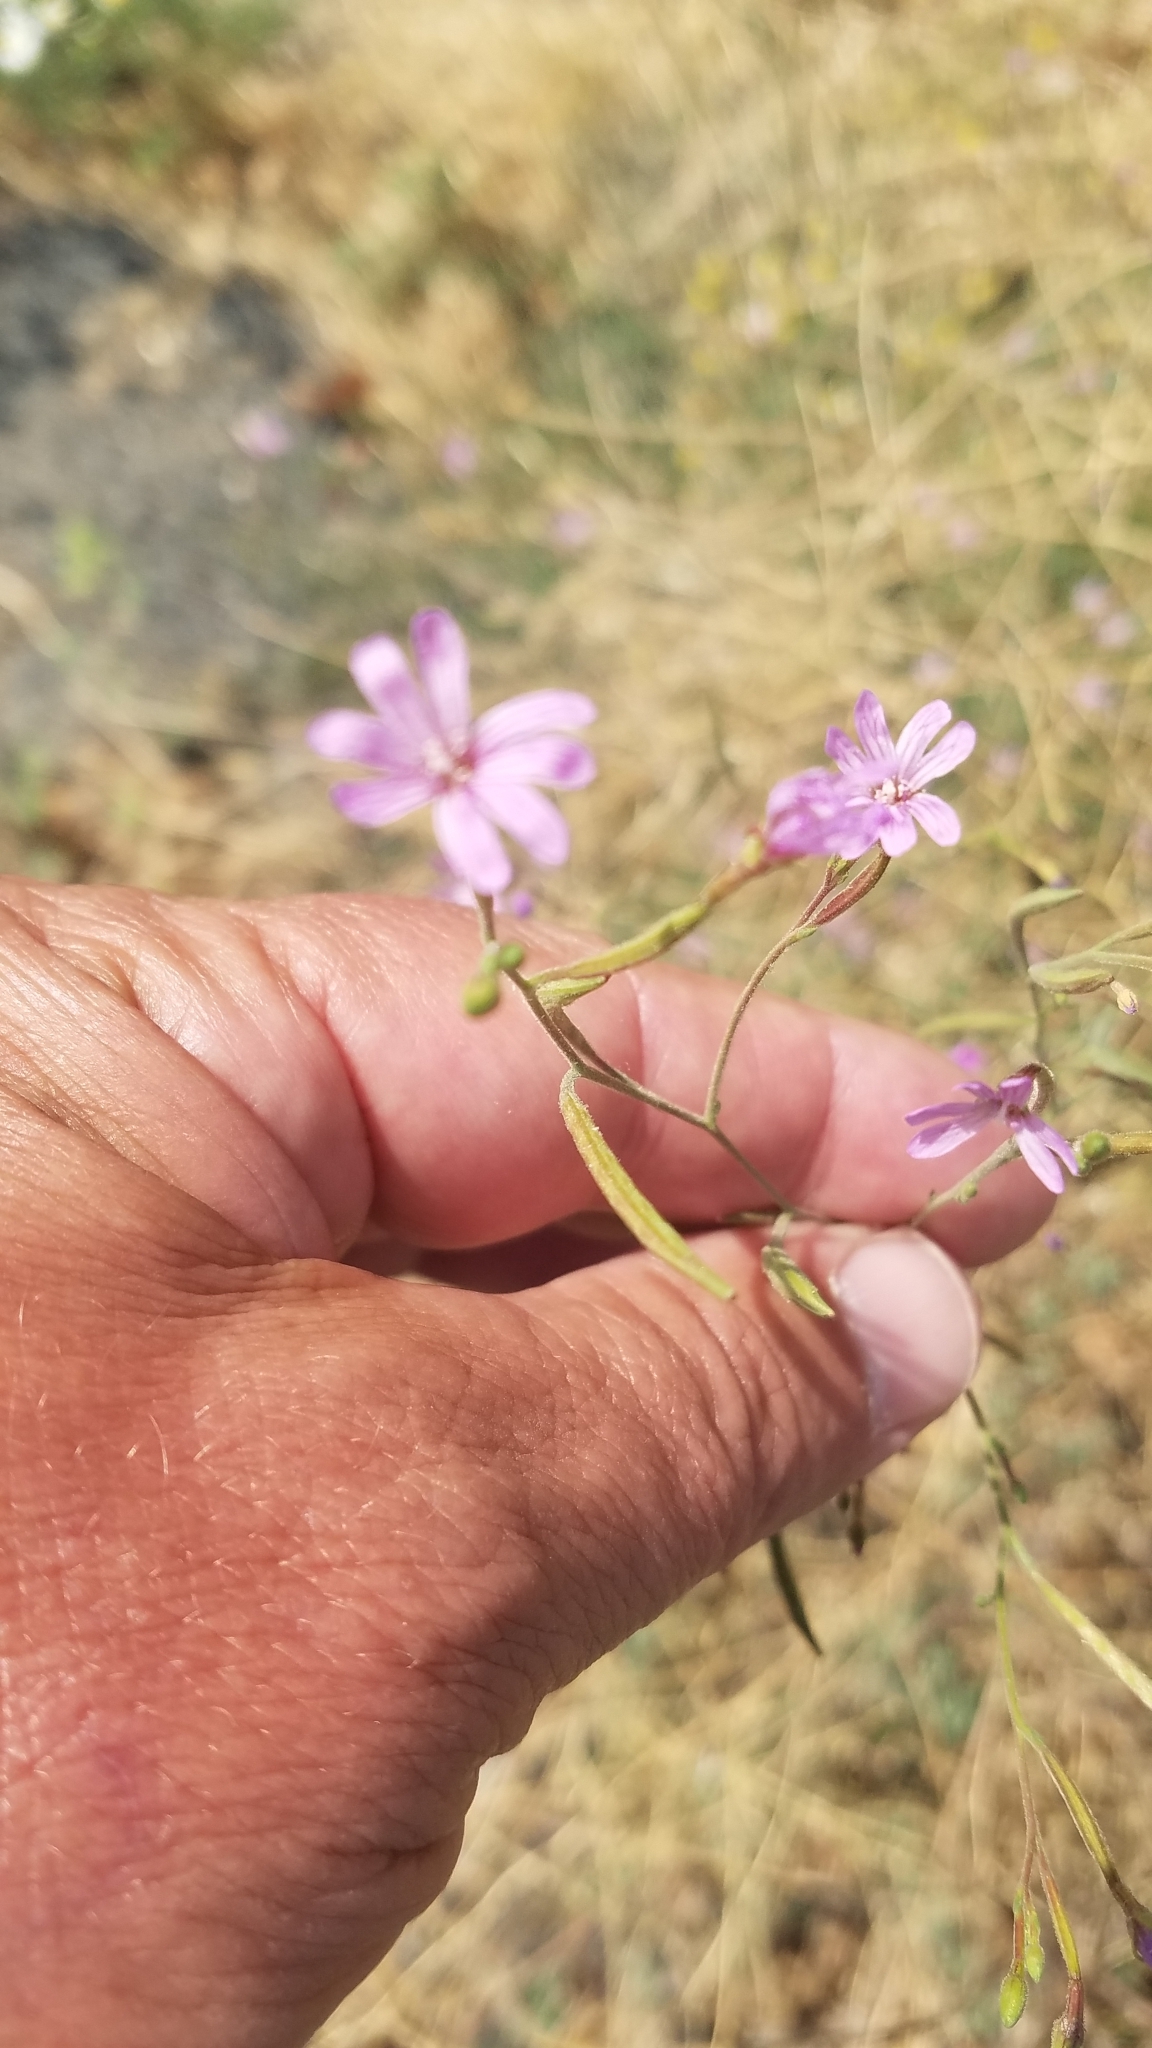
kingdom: Plantae
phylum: Tracheophyta
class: Magnoliopsida
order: Myrtales
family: Onagraceae
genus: Epilobium
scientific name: Epilobium brachycarpum
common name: Annual willowherb
